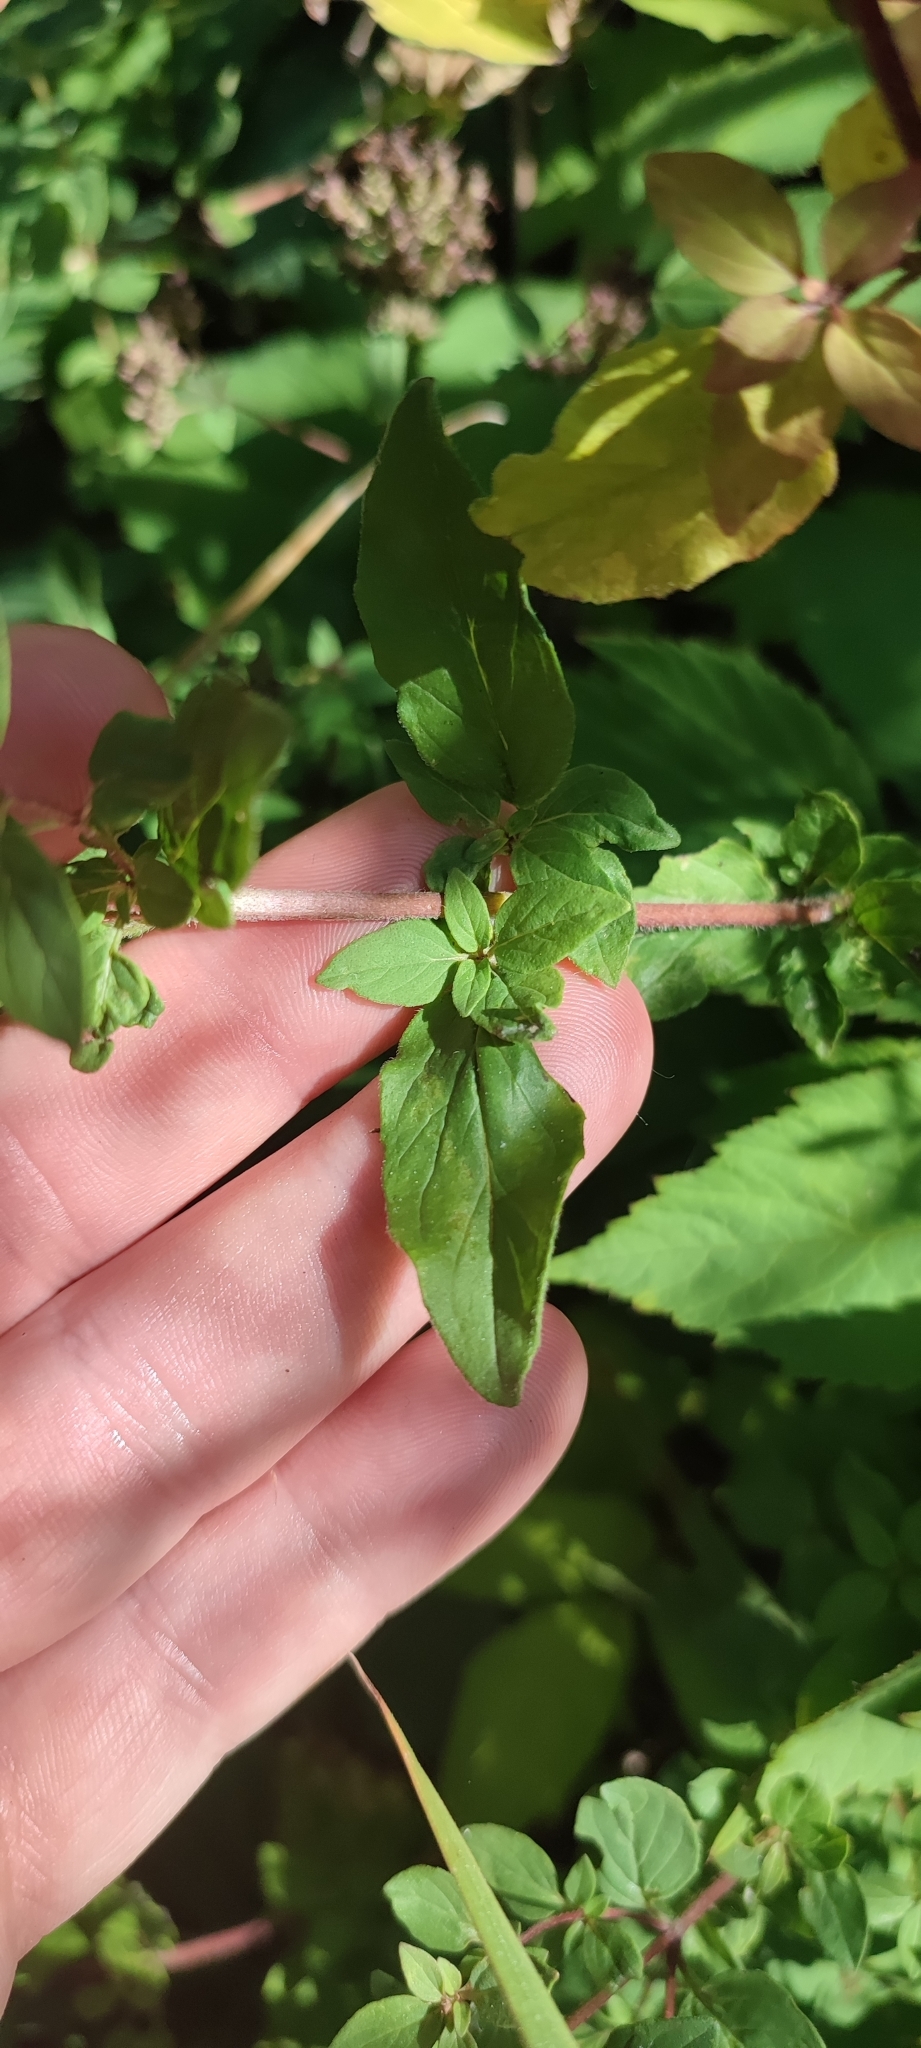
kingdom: Plantae
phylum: Tracheophyta
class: Magnoliopsida
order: Lamiales
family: Lamiaceae
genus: Origanum
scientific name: Origanum vulgare
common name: Wild marjoram
